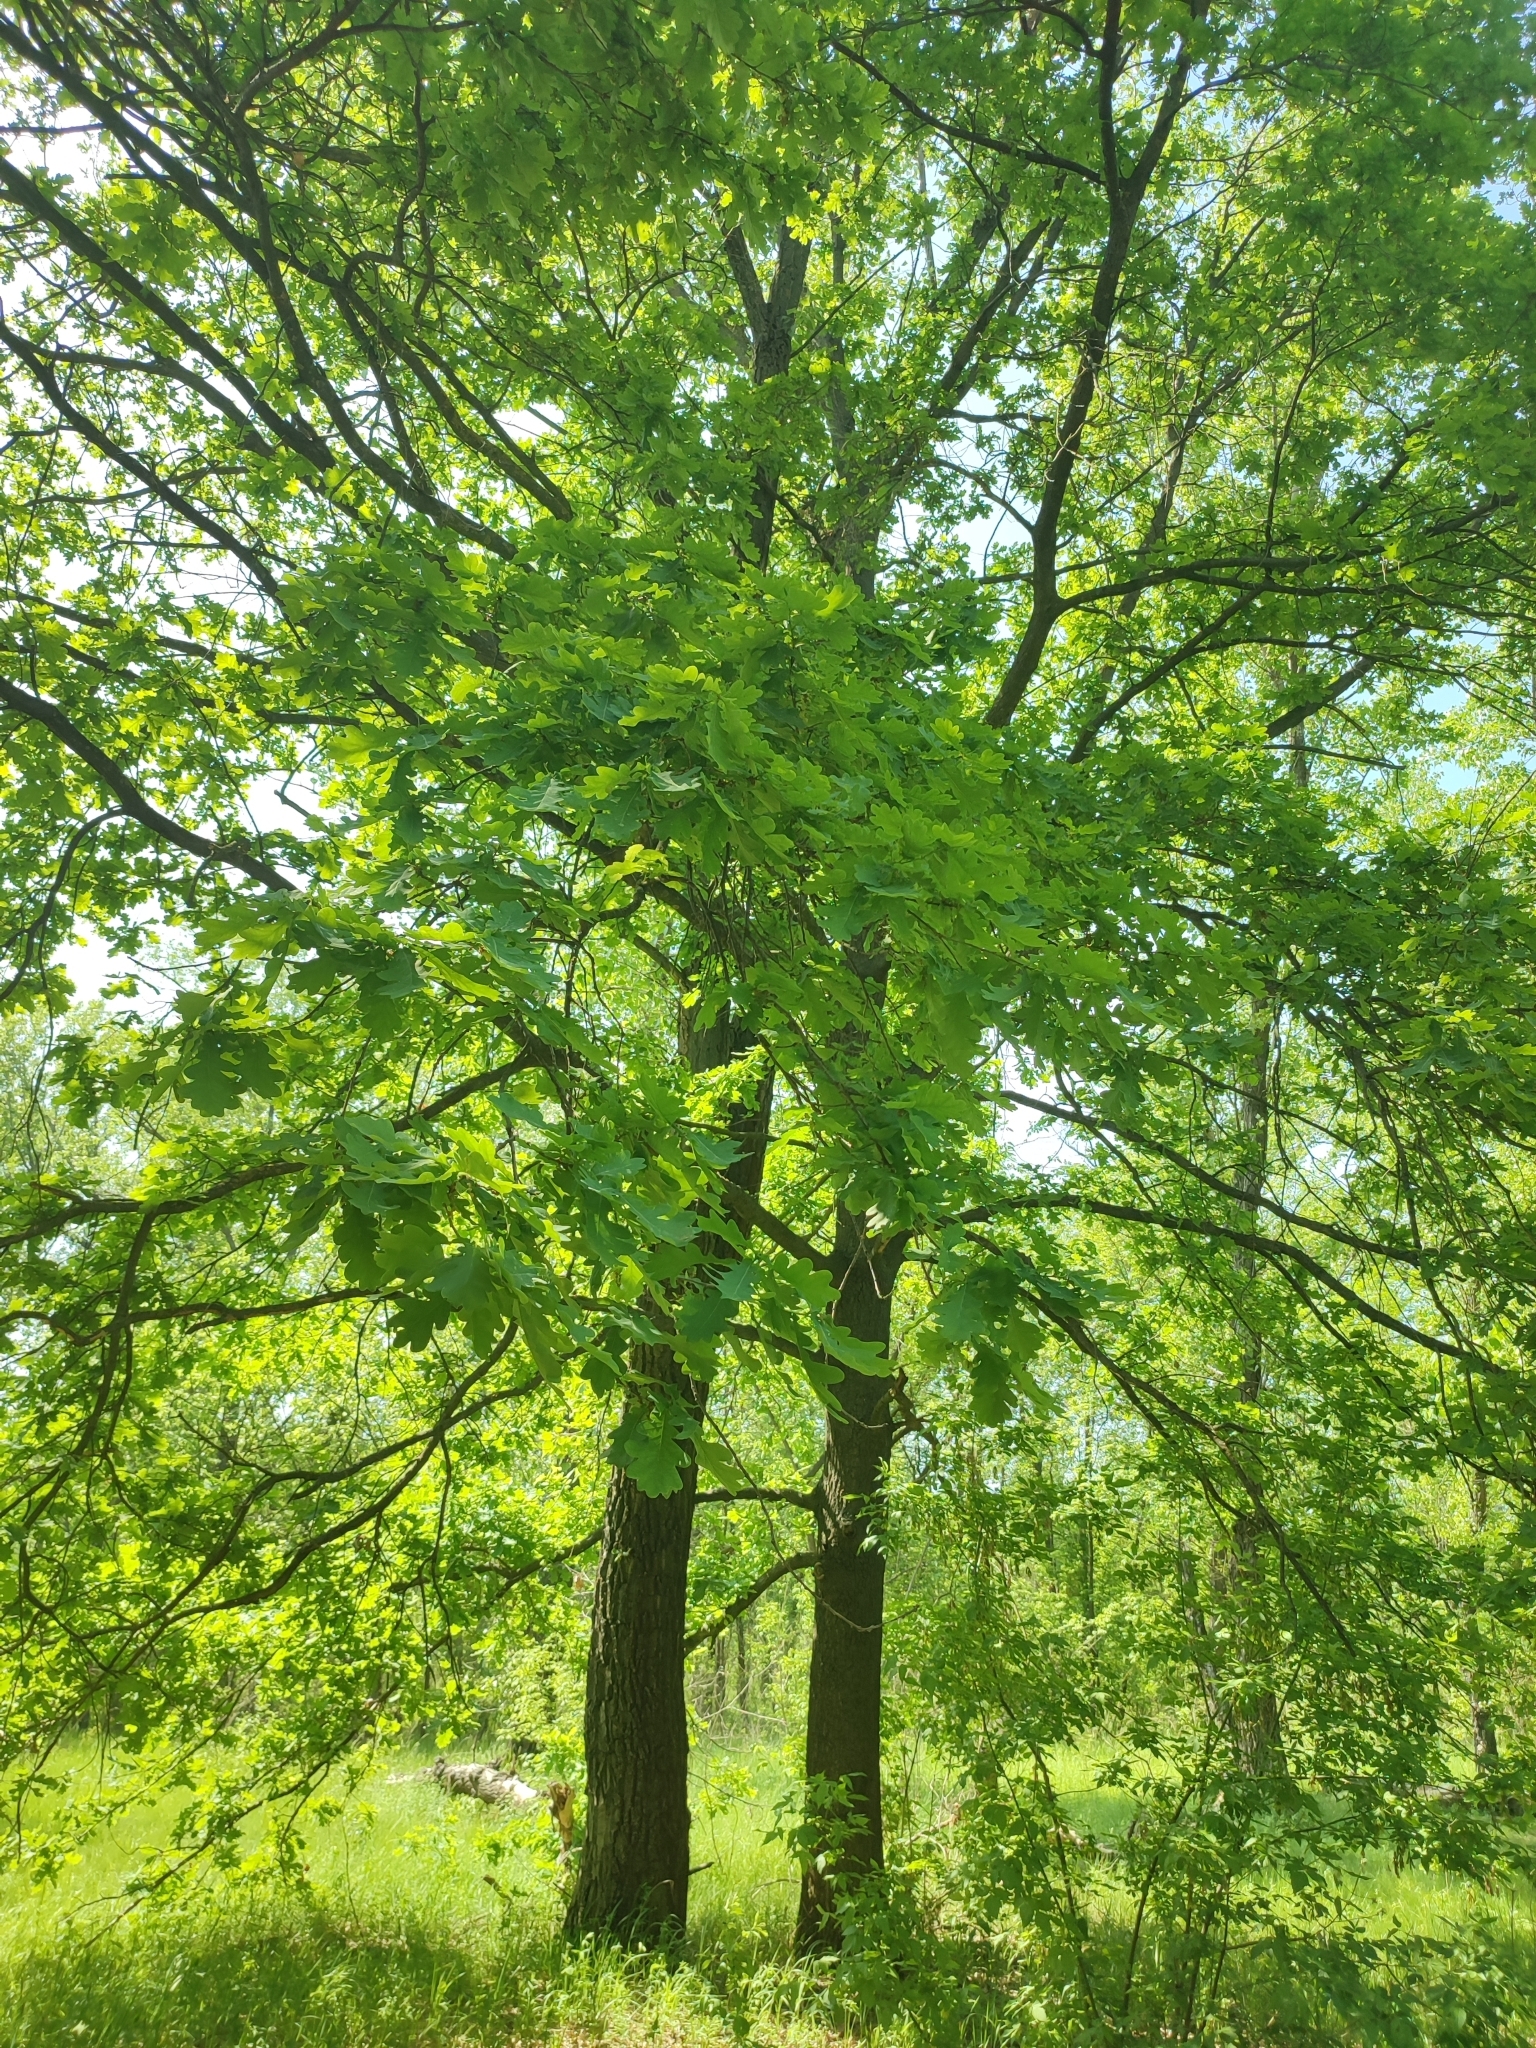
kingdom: Plantae
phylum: Tracheophyta
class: Magnoliopsida
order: Fagales
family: Fagaceae
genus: Quercus
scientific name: Quercus robur
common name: Pedunculate oak
